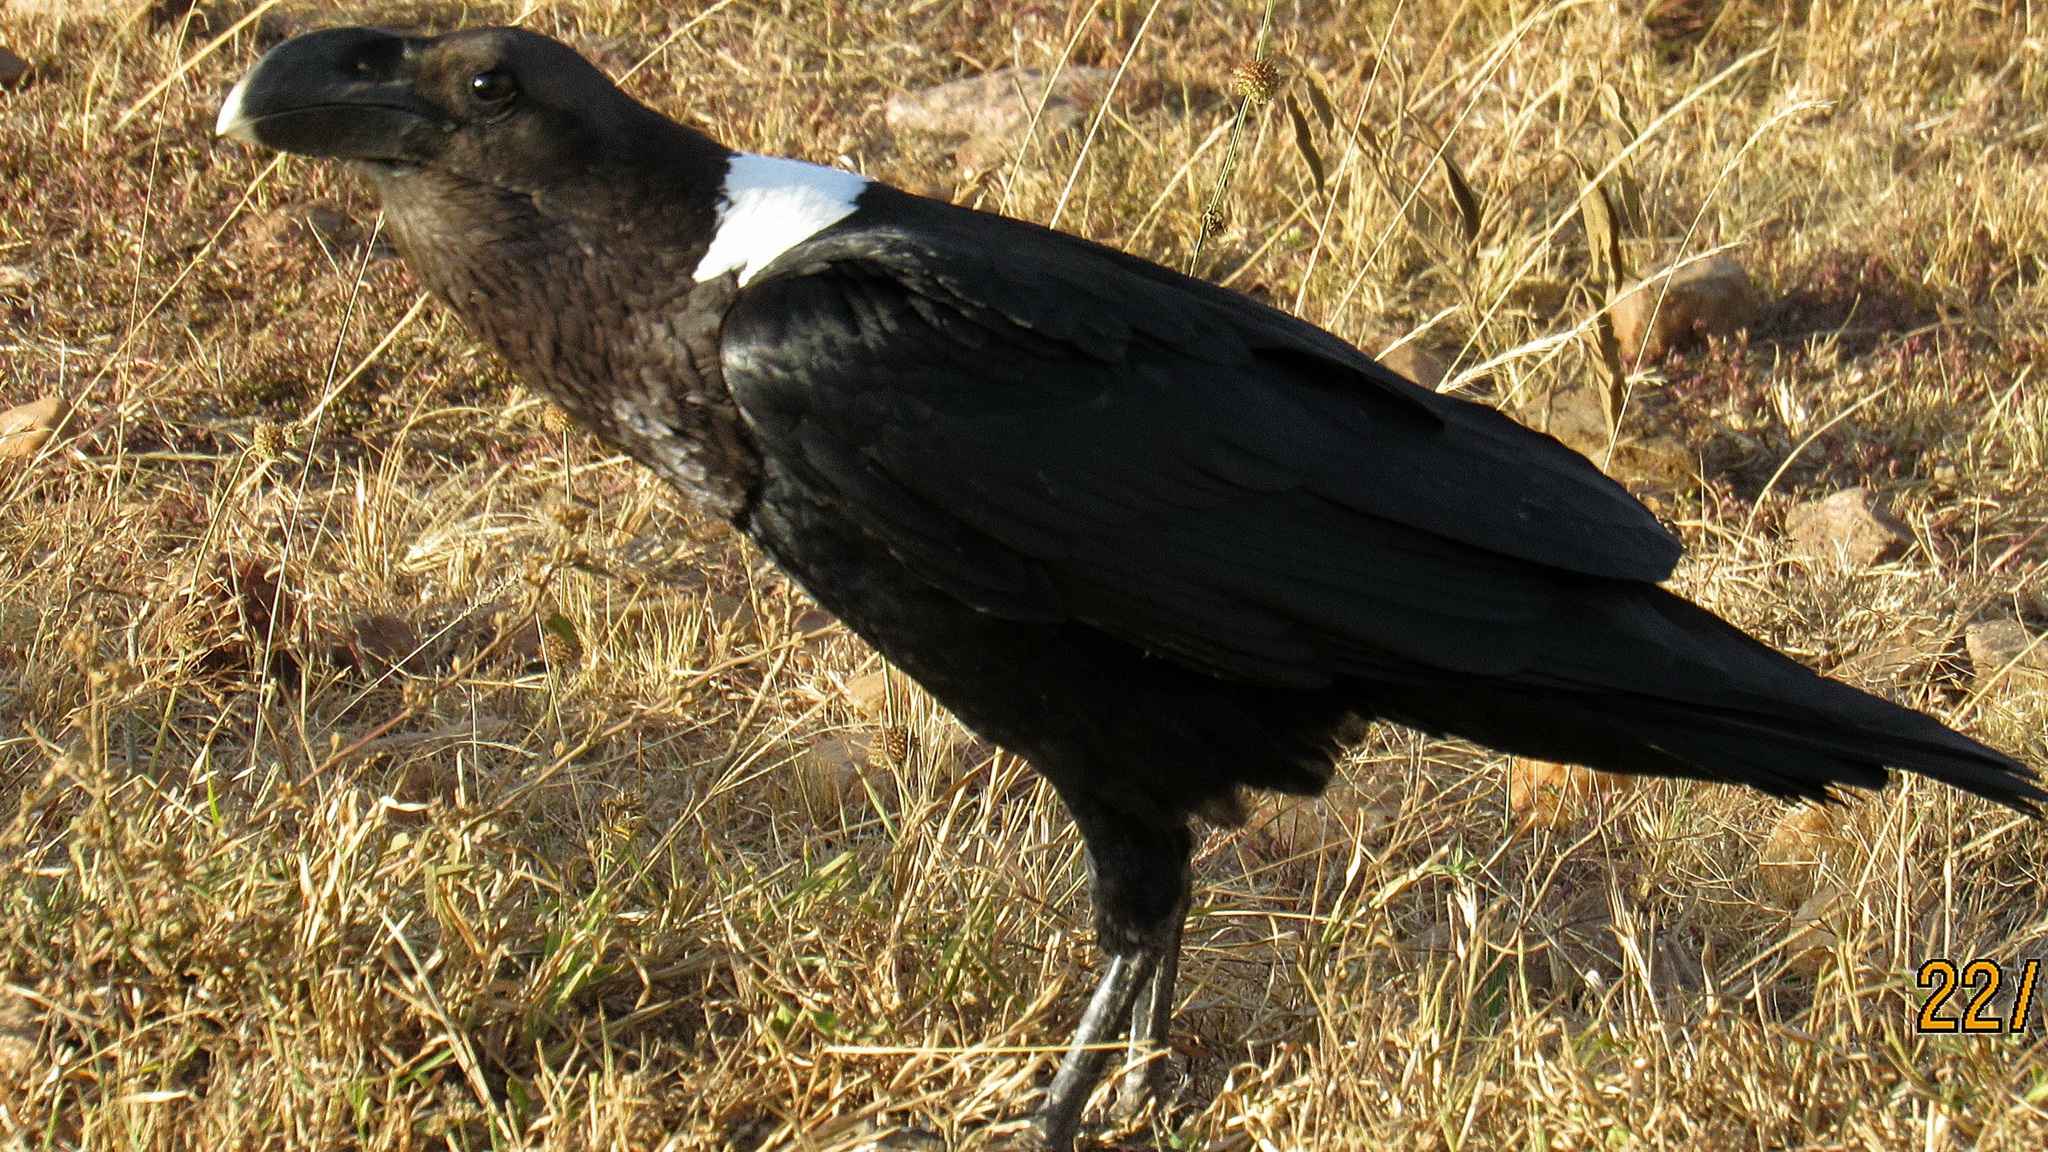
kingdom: Animalia
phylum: Chordata
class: Aves
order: Passeriformes
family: Corvidae
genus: Corvus
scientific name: Corvus albicollis
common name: White-necked raven
